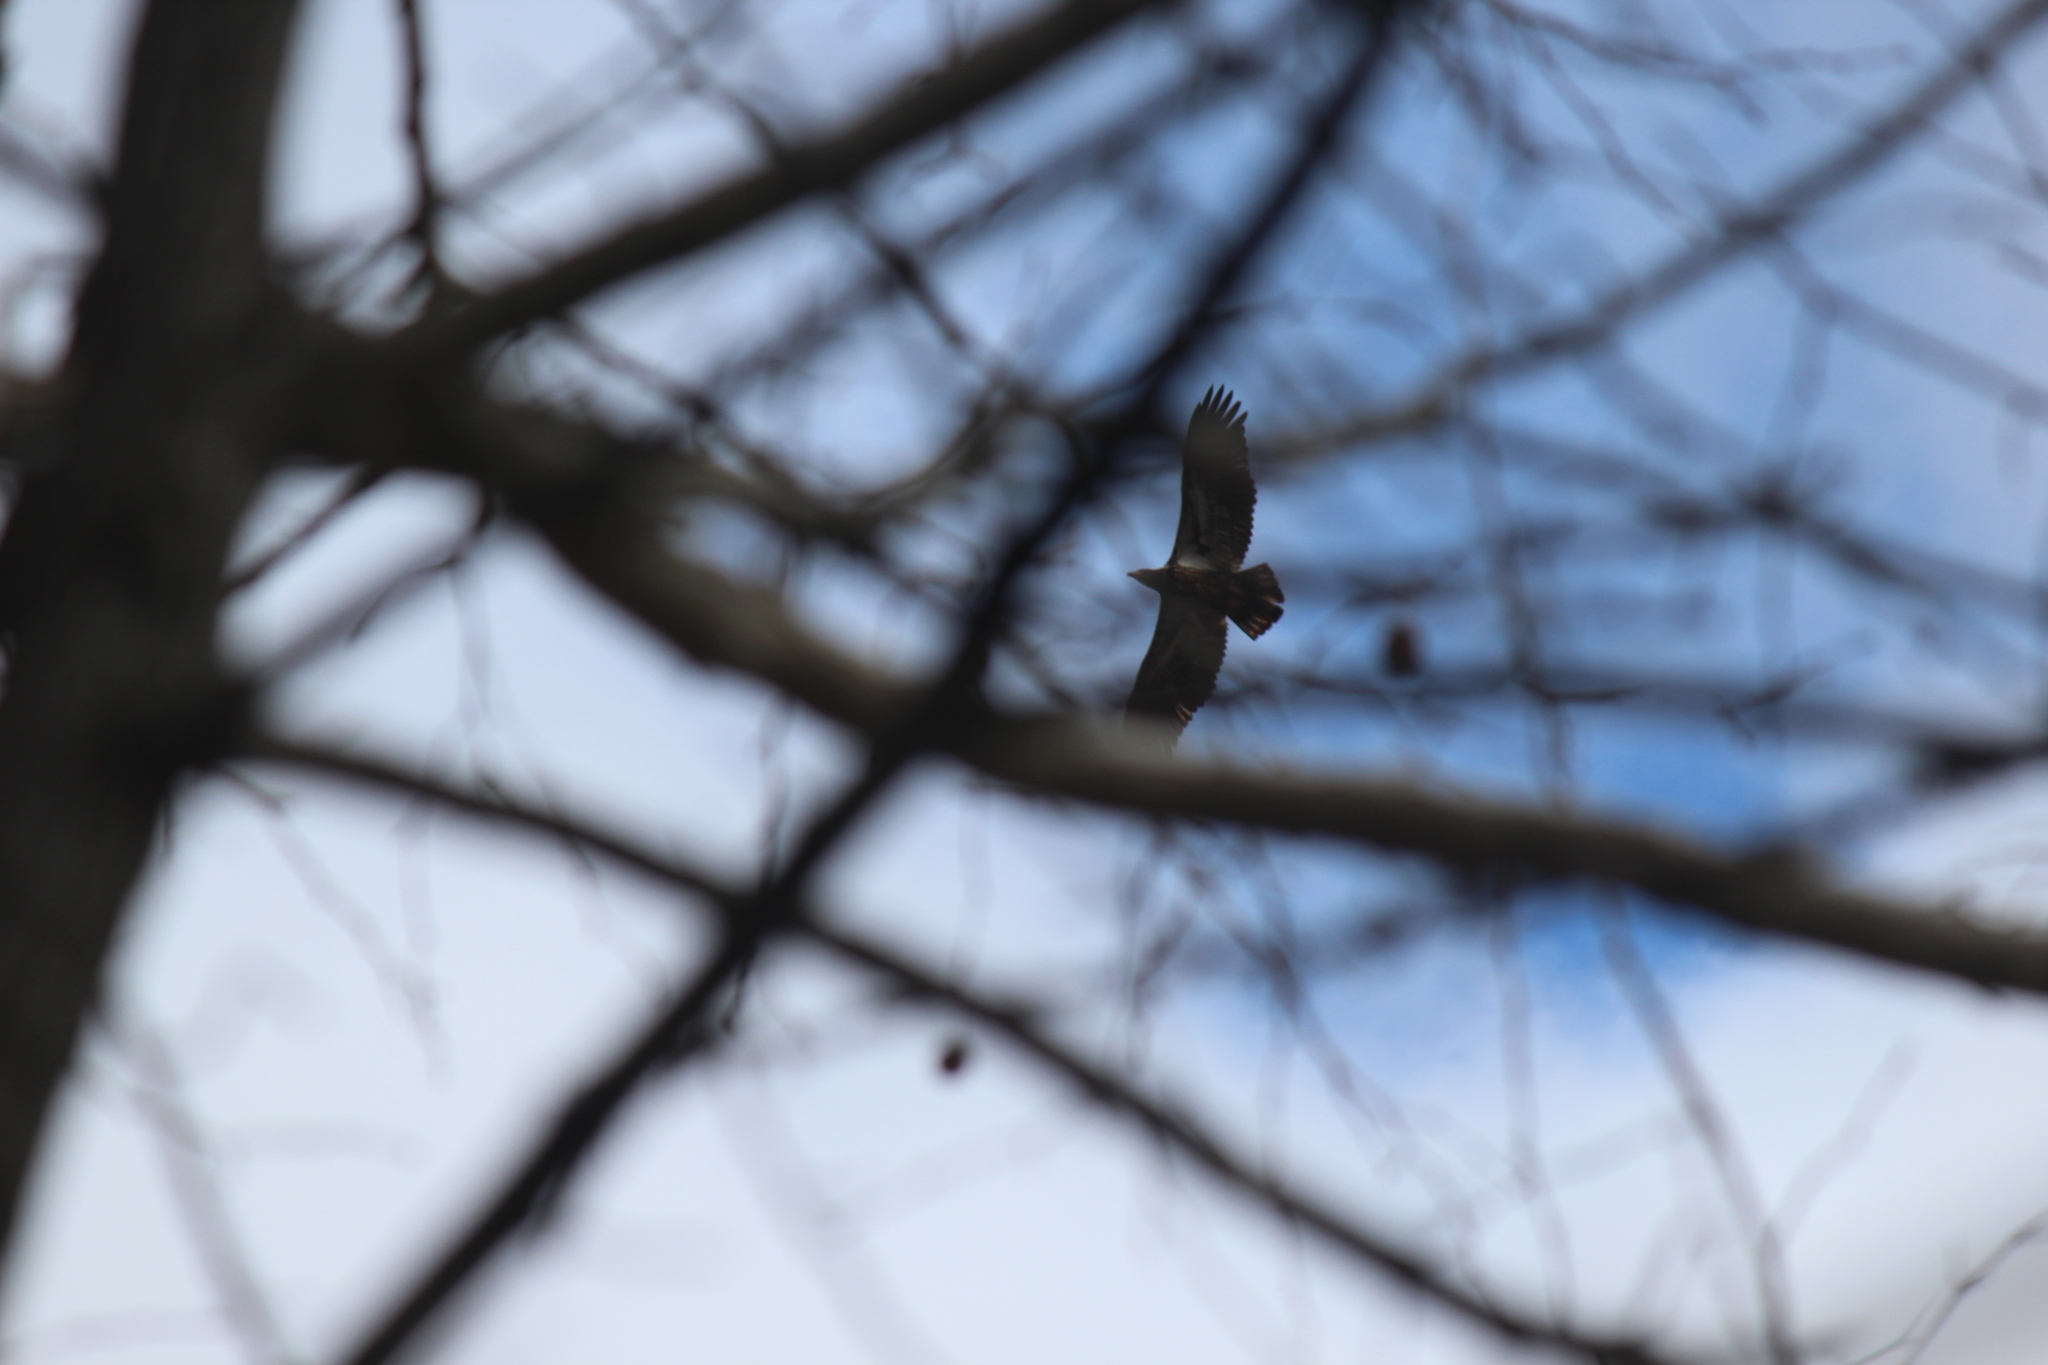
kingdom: Animalia
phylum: Chordata
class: Aves
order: Accipitriformes
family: Accipitridae
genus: Haliaeetus
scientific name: Haliaeetus leucocephalus
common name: Bald eagle
